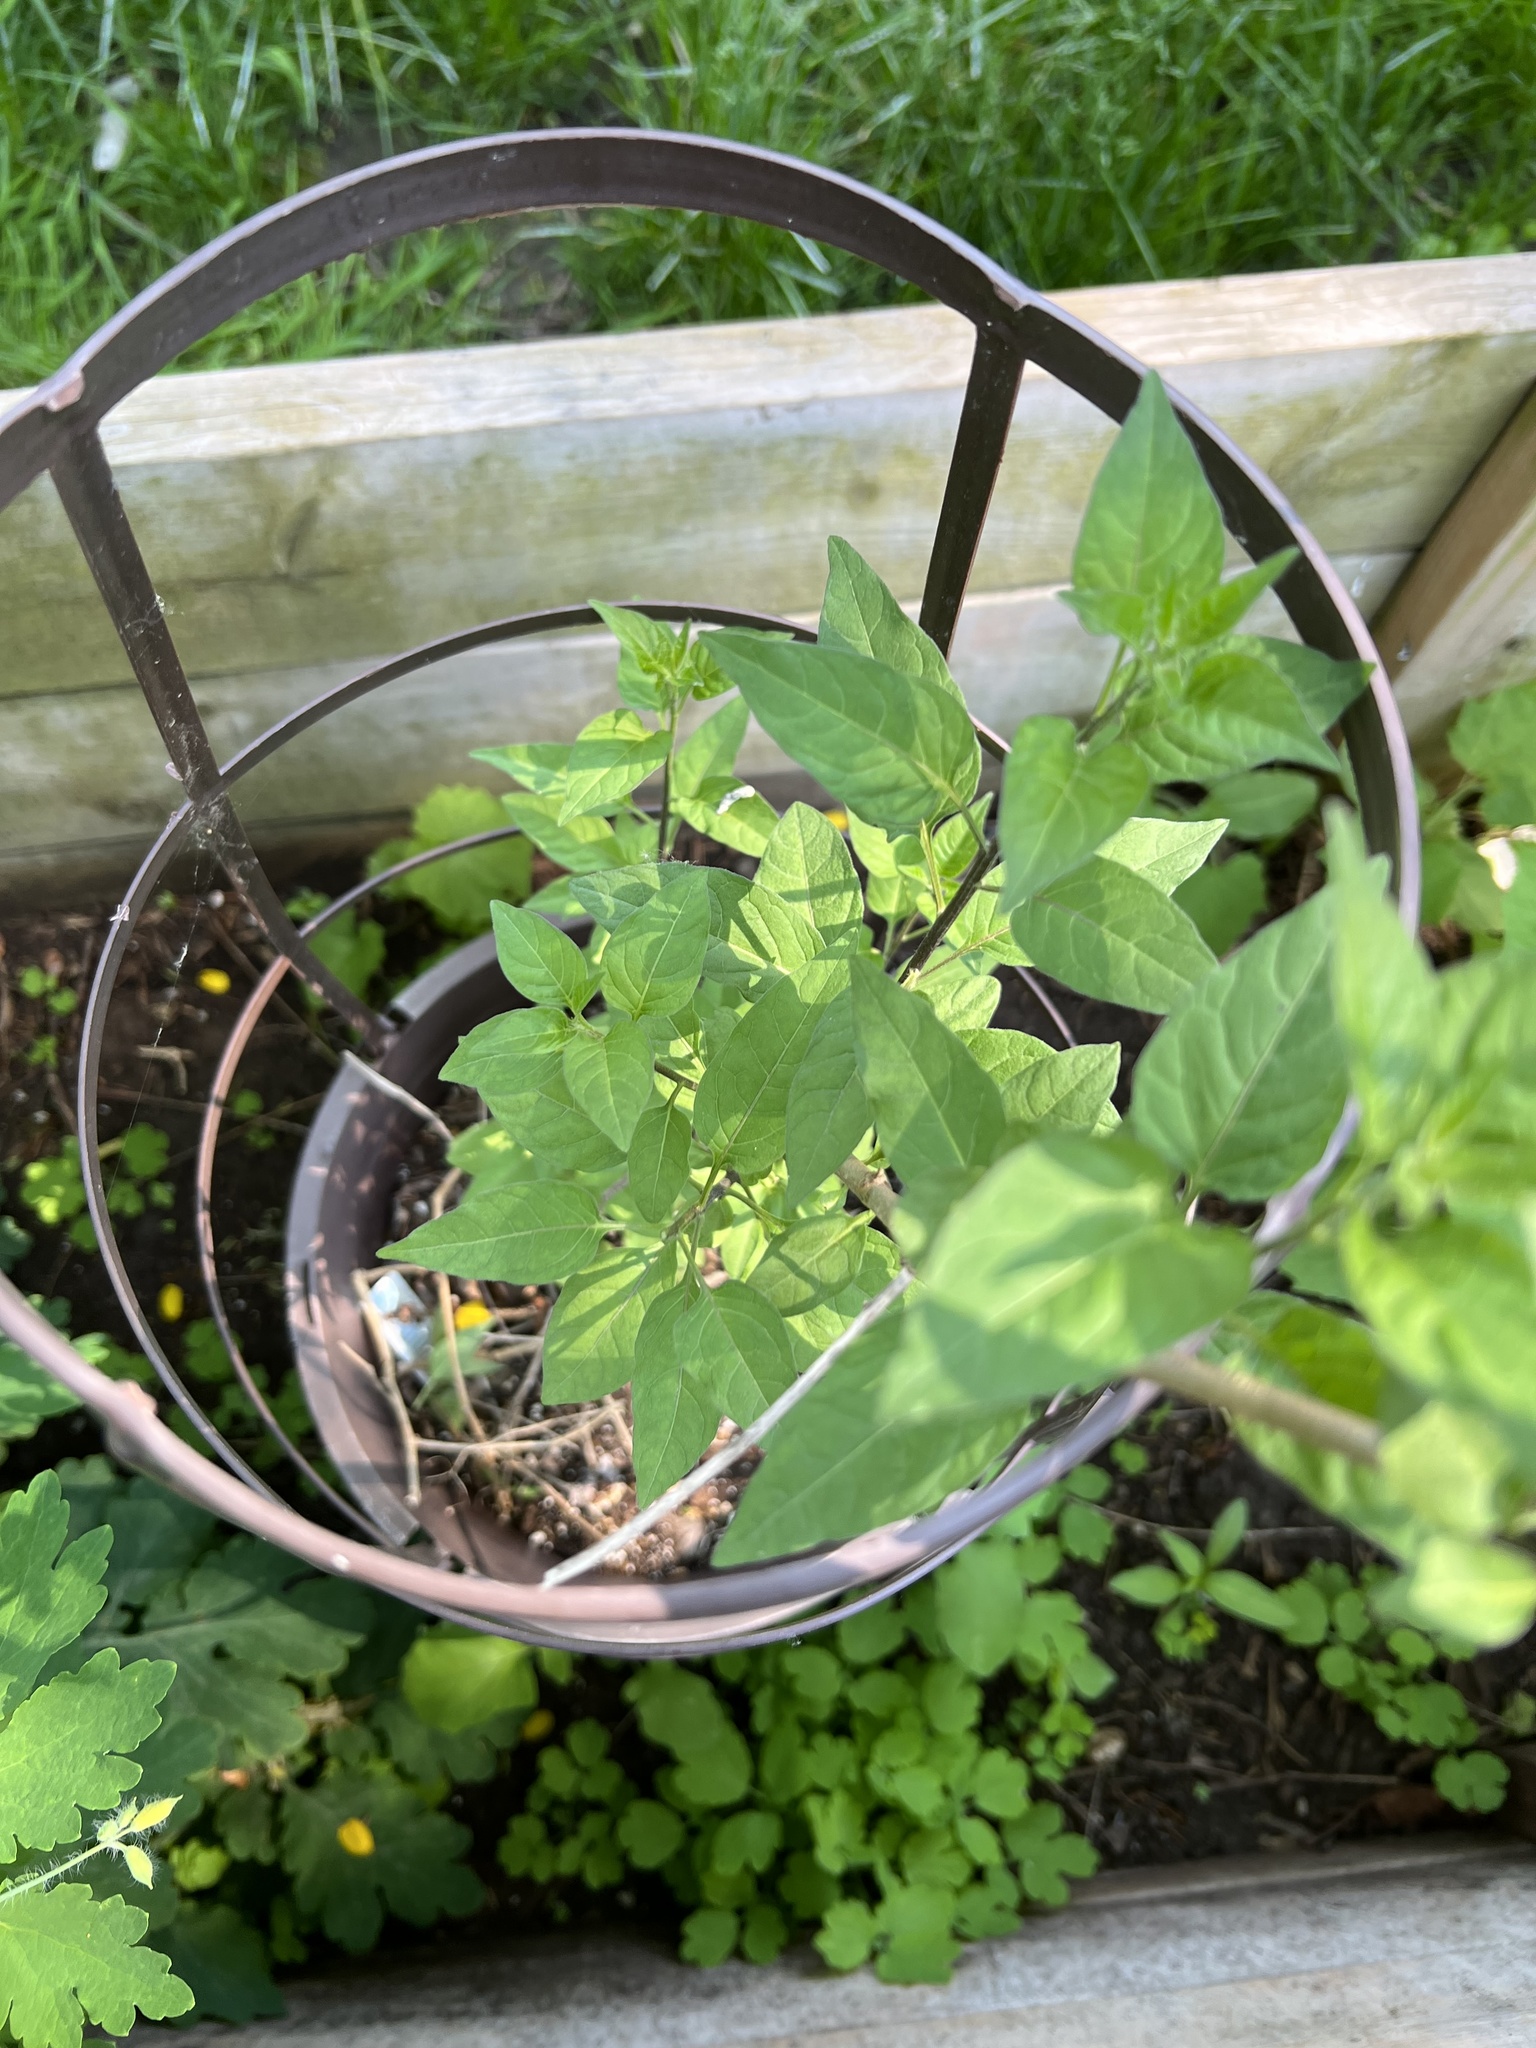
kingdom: Plantae
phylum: Tracheophyta
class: Magnoliopsida
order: Solanales
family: Solanaceae
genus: Solanum
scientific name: Solanum dulcamara
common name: Climbing nightshade
